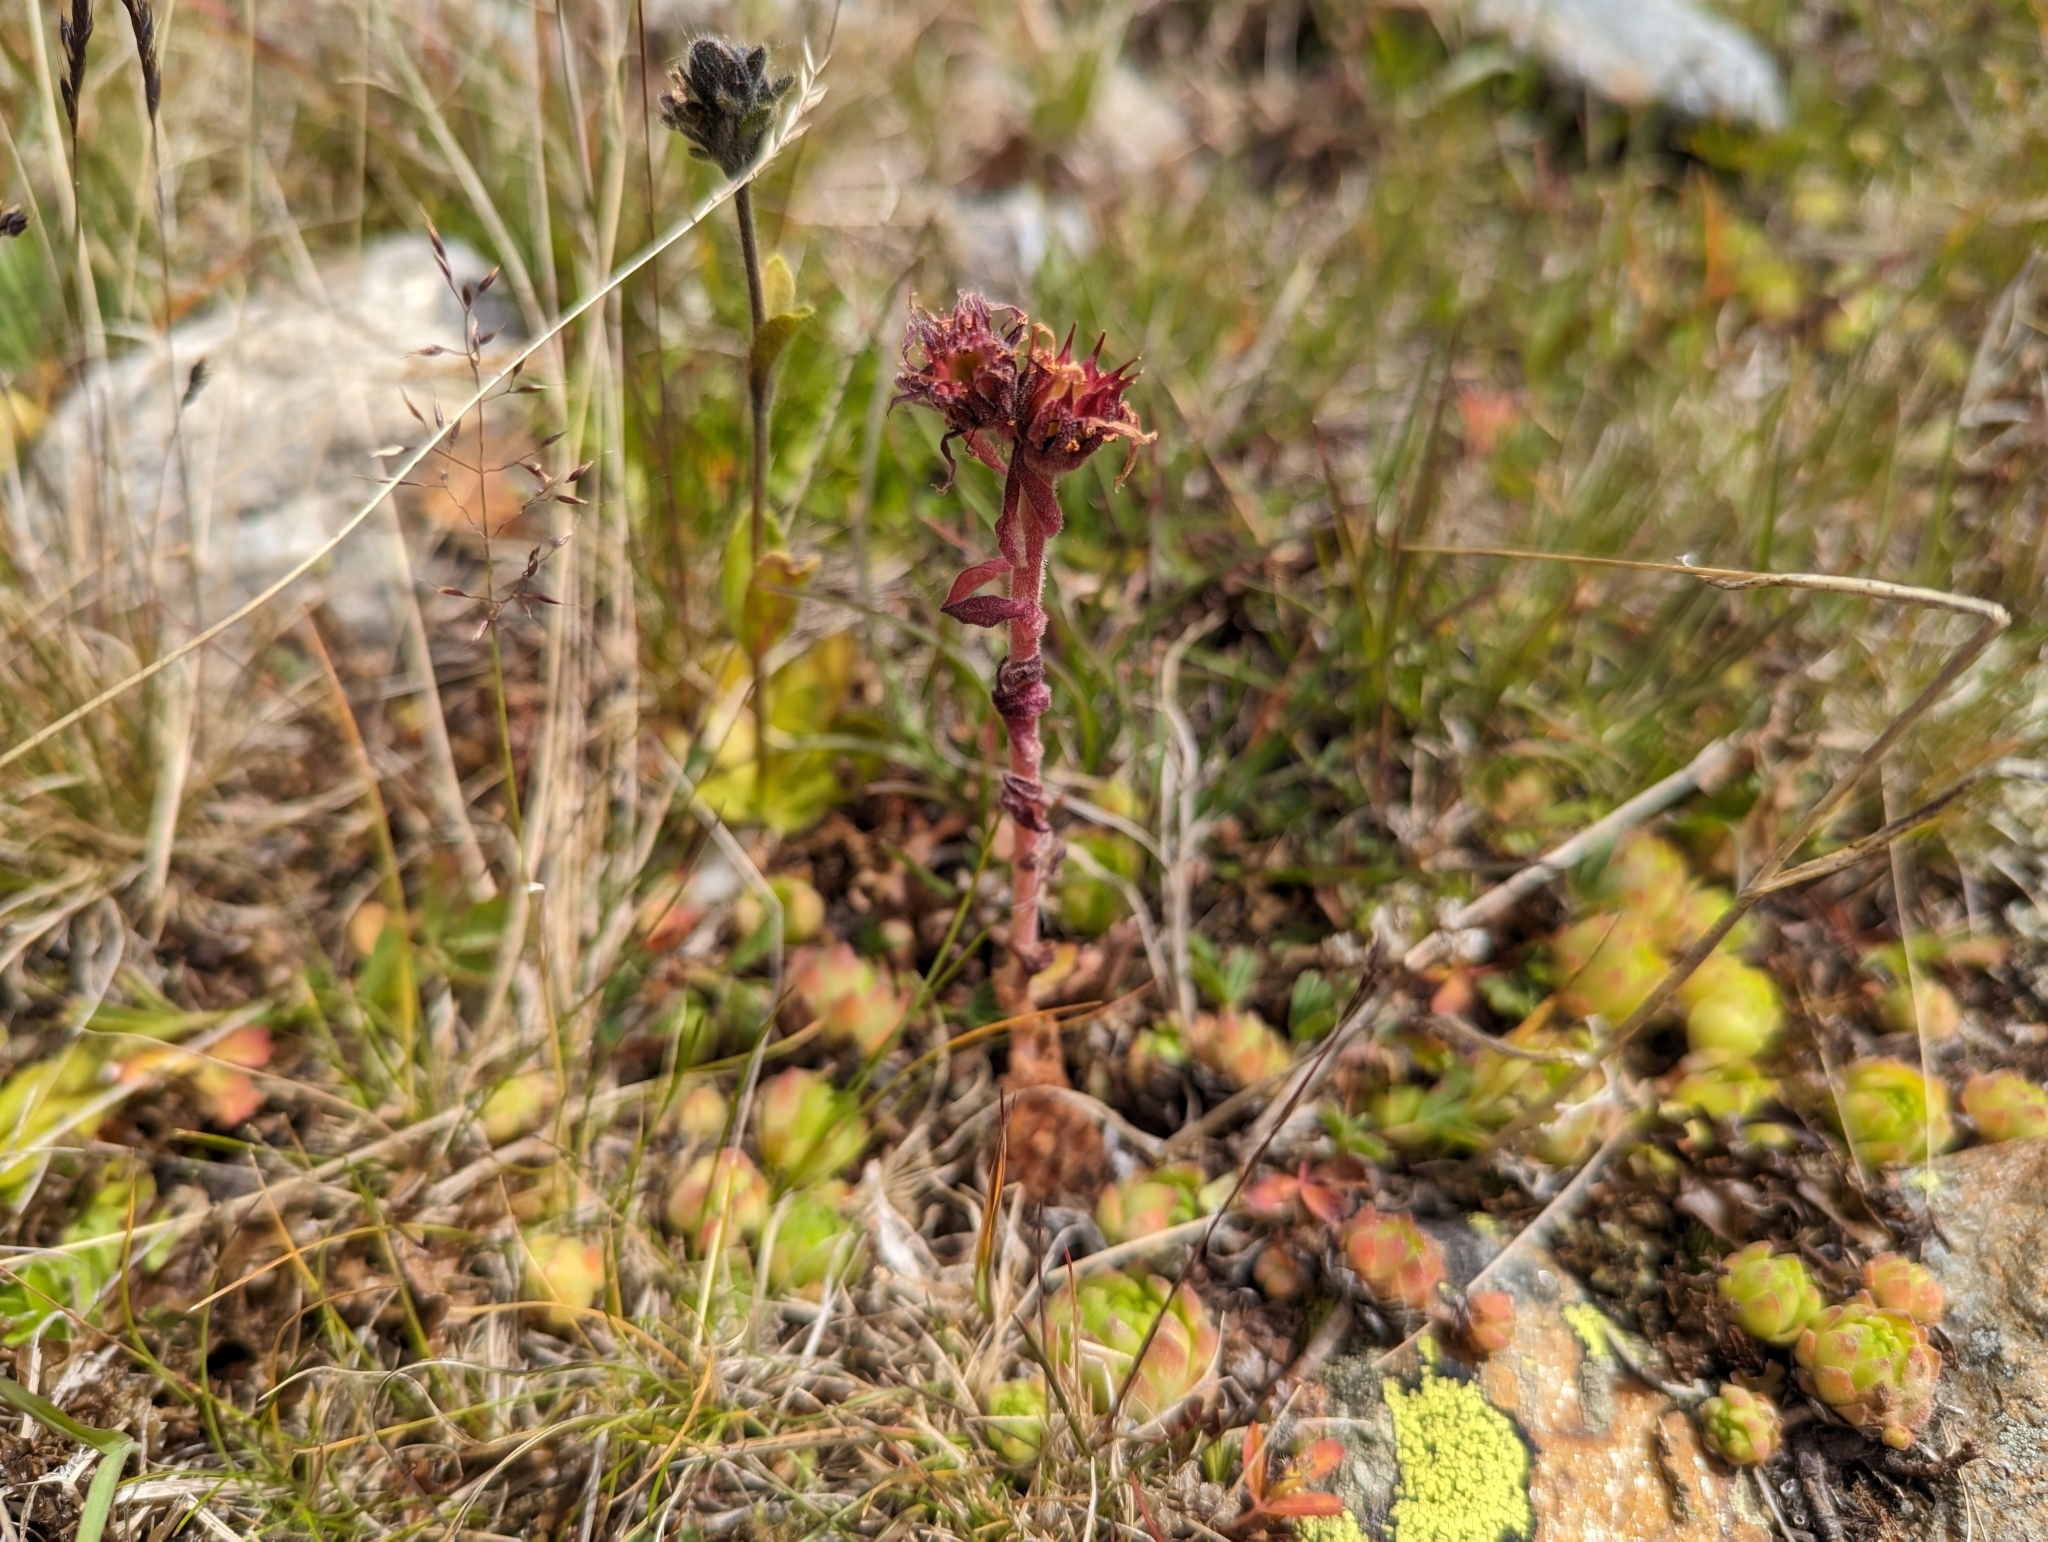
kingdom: Plantae
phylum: Tracheophyta
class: Magnoliopsida
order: Saxifragales
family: Crassulaceae
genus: Sempervivum
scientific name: Sempervivum montanum
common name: Mountain house-leek
